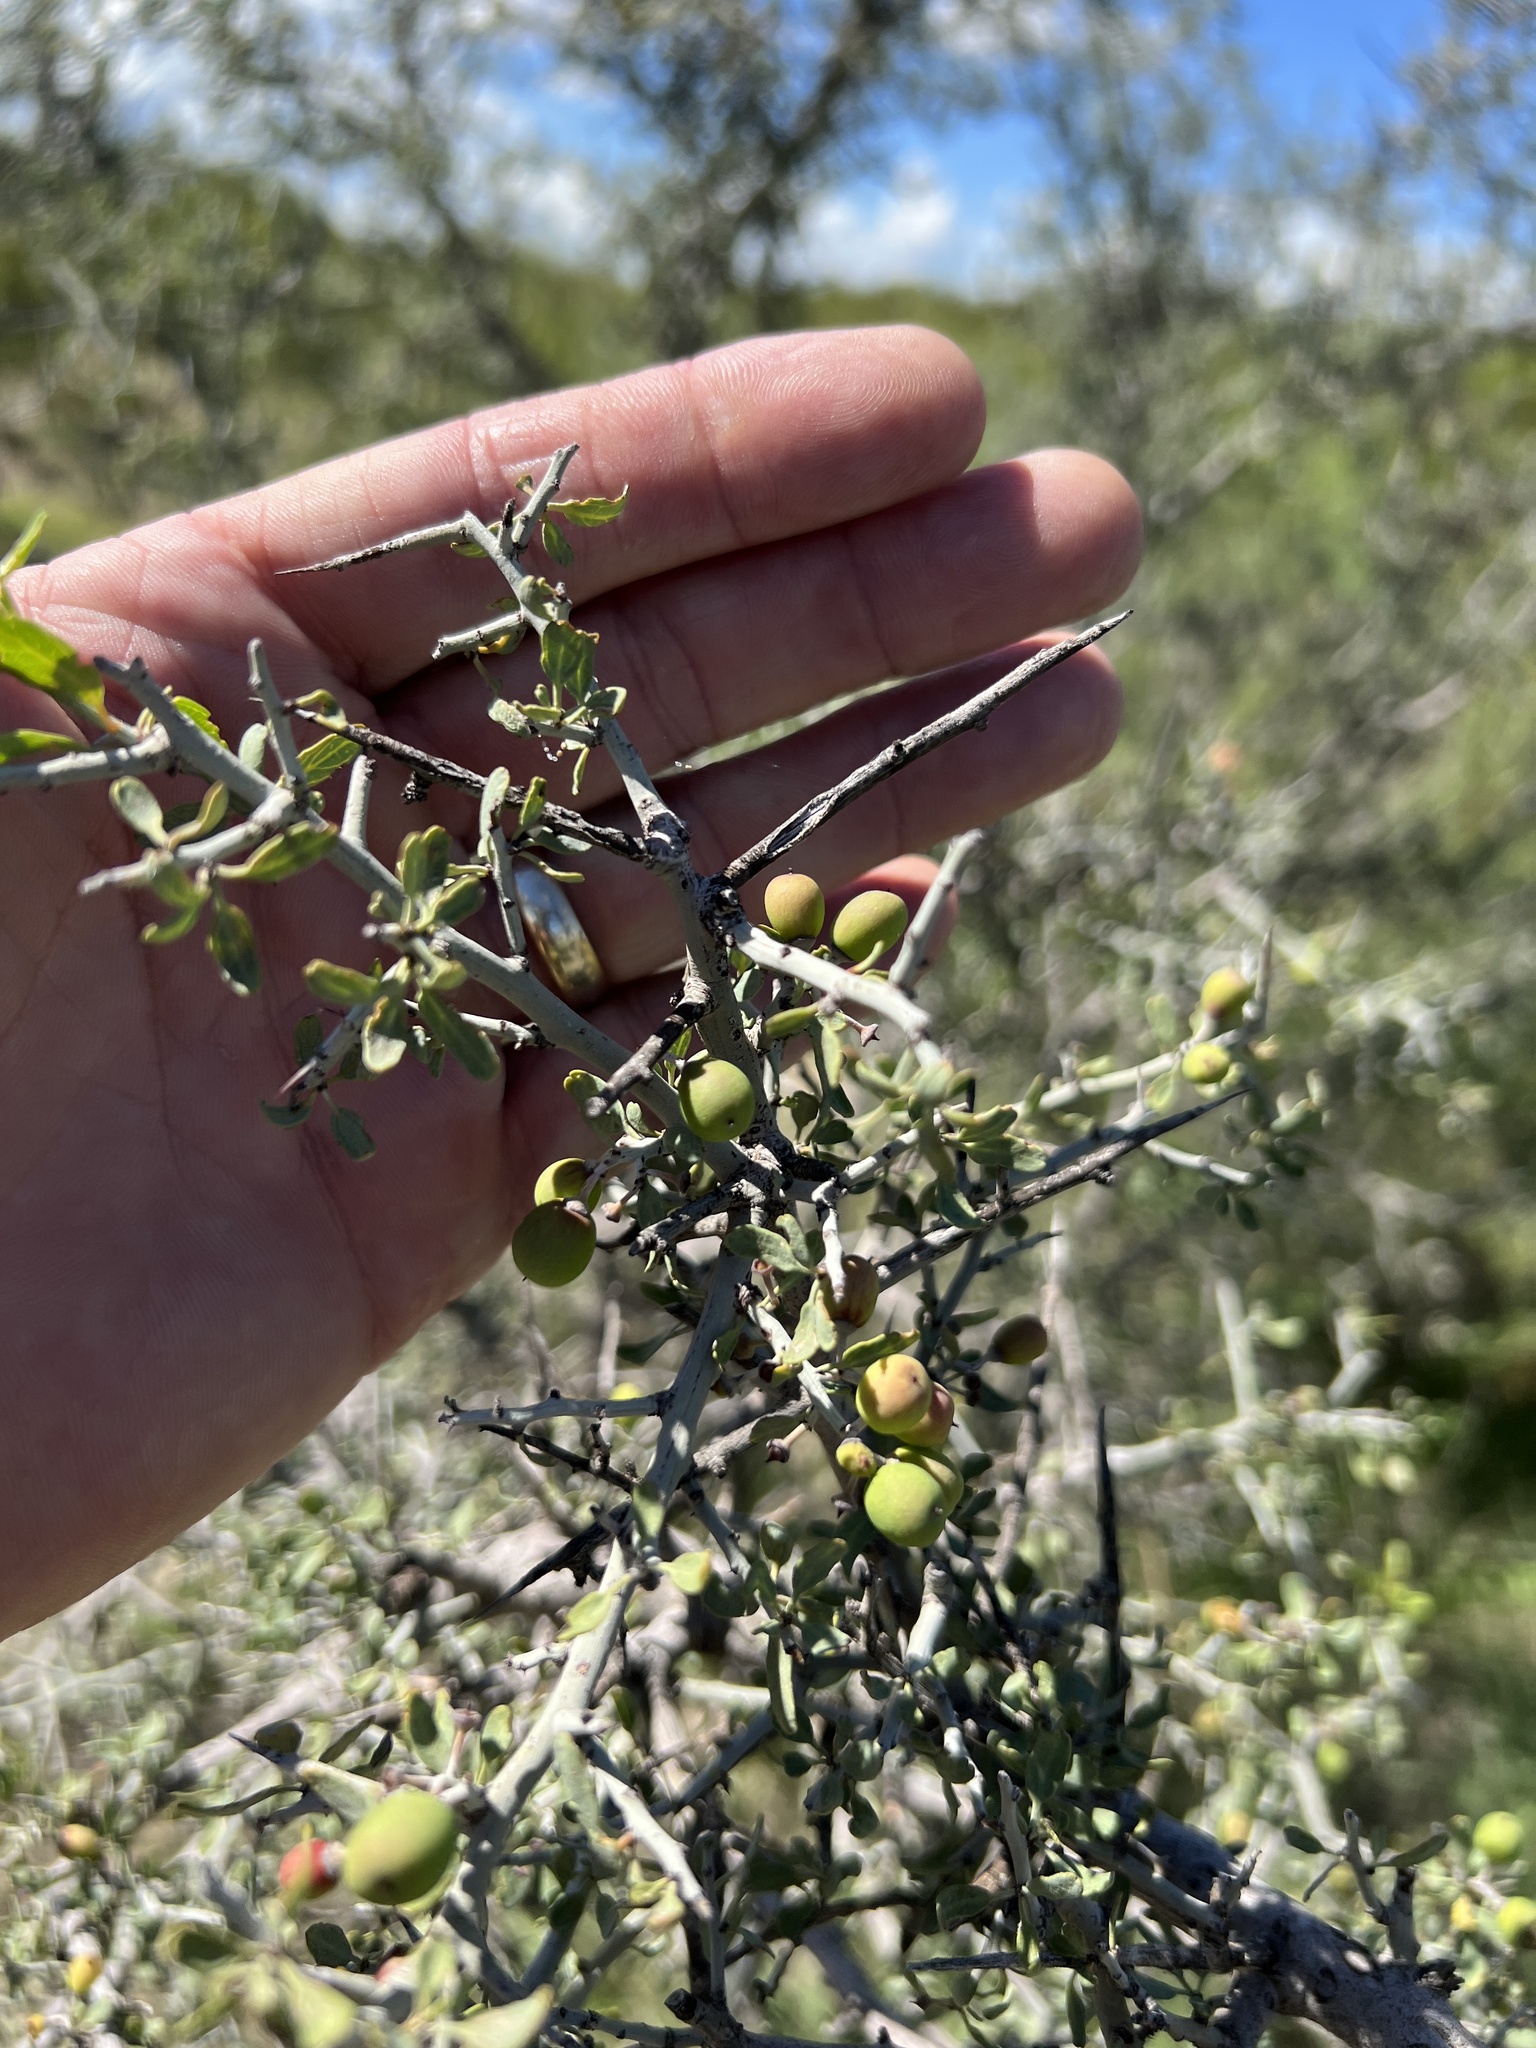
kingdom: Plantae
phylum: Tracheophyta
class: Magnoliopsida
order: Rosales
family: Rhamnaceae
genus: Sarcomphalus
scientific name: Sarcomphalus obtusifolius
